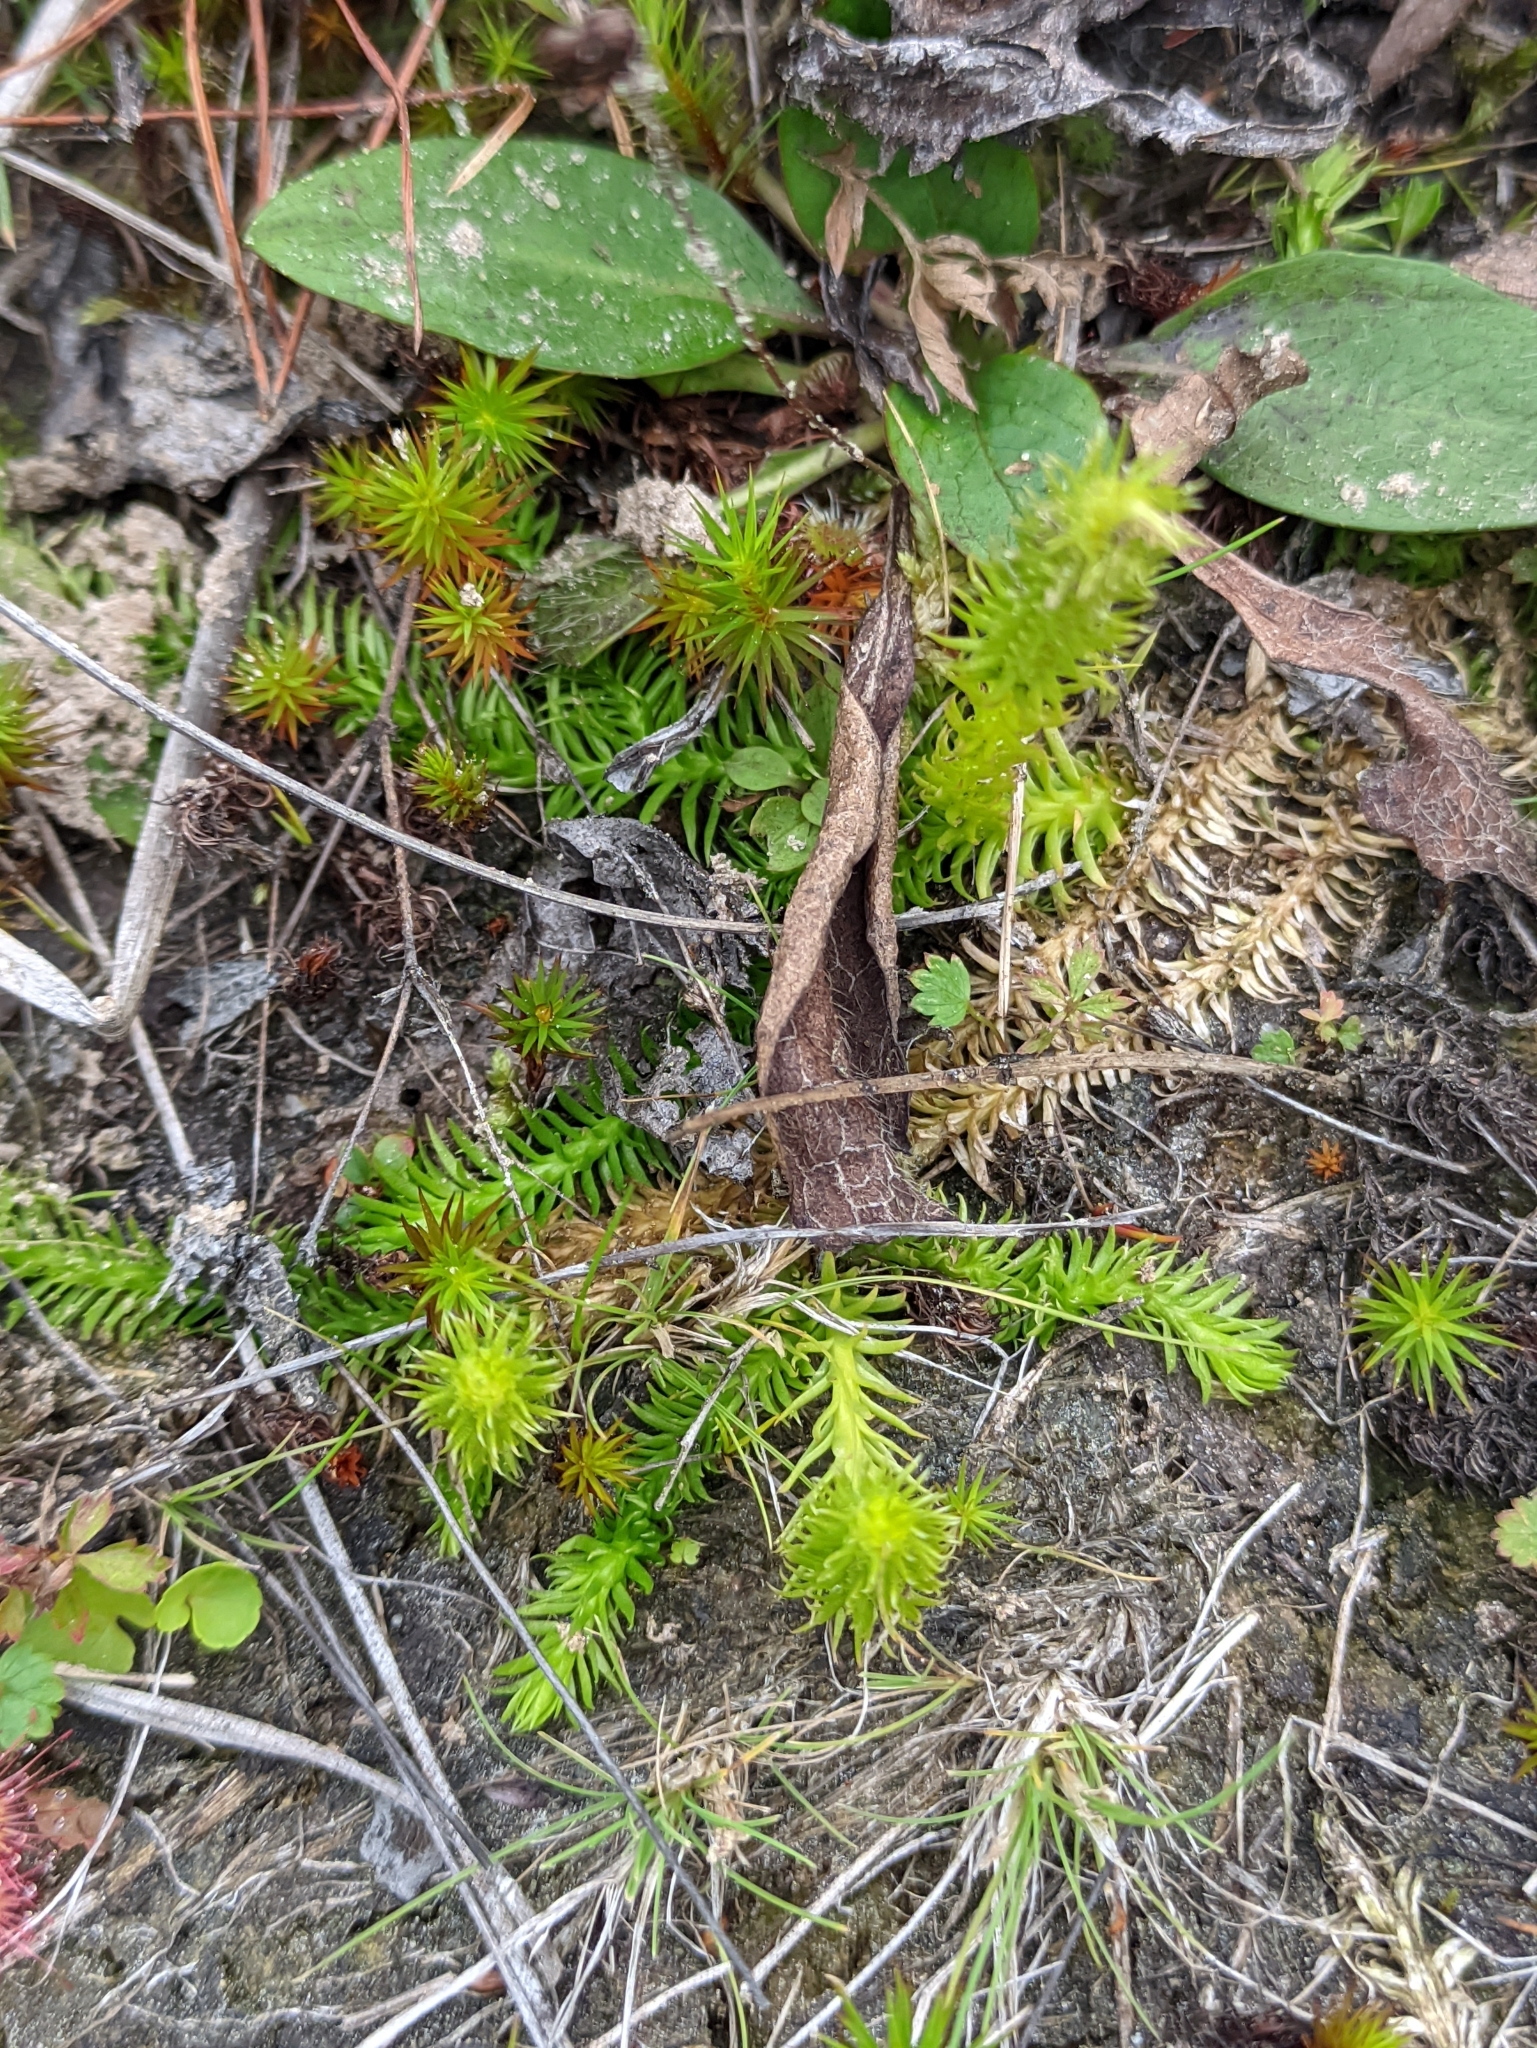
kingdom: Plantae
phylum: Tracheophyta
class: Lycopodiopsida
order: Lycopodiales
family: Lycopodiaceae
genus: Lycopodiella
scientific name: Lycopodiella inundata
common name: Marsh clubmoss
